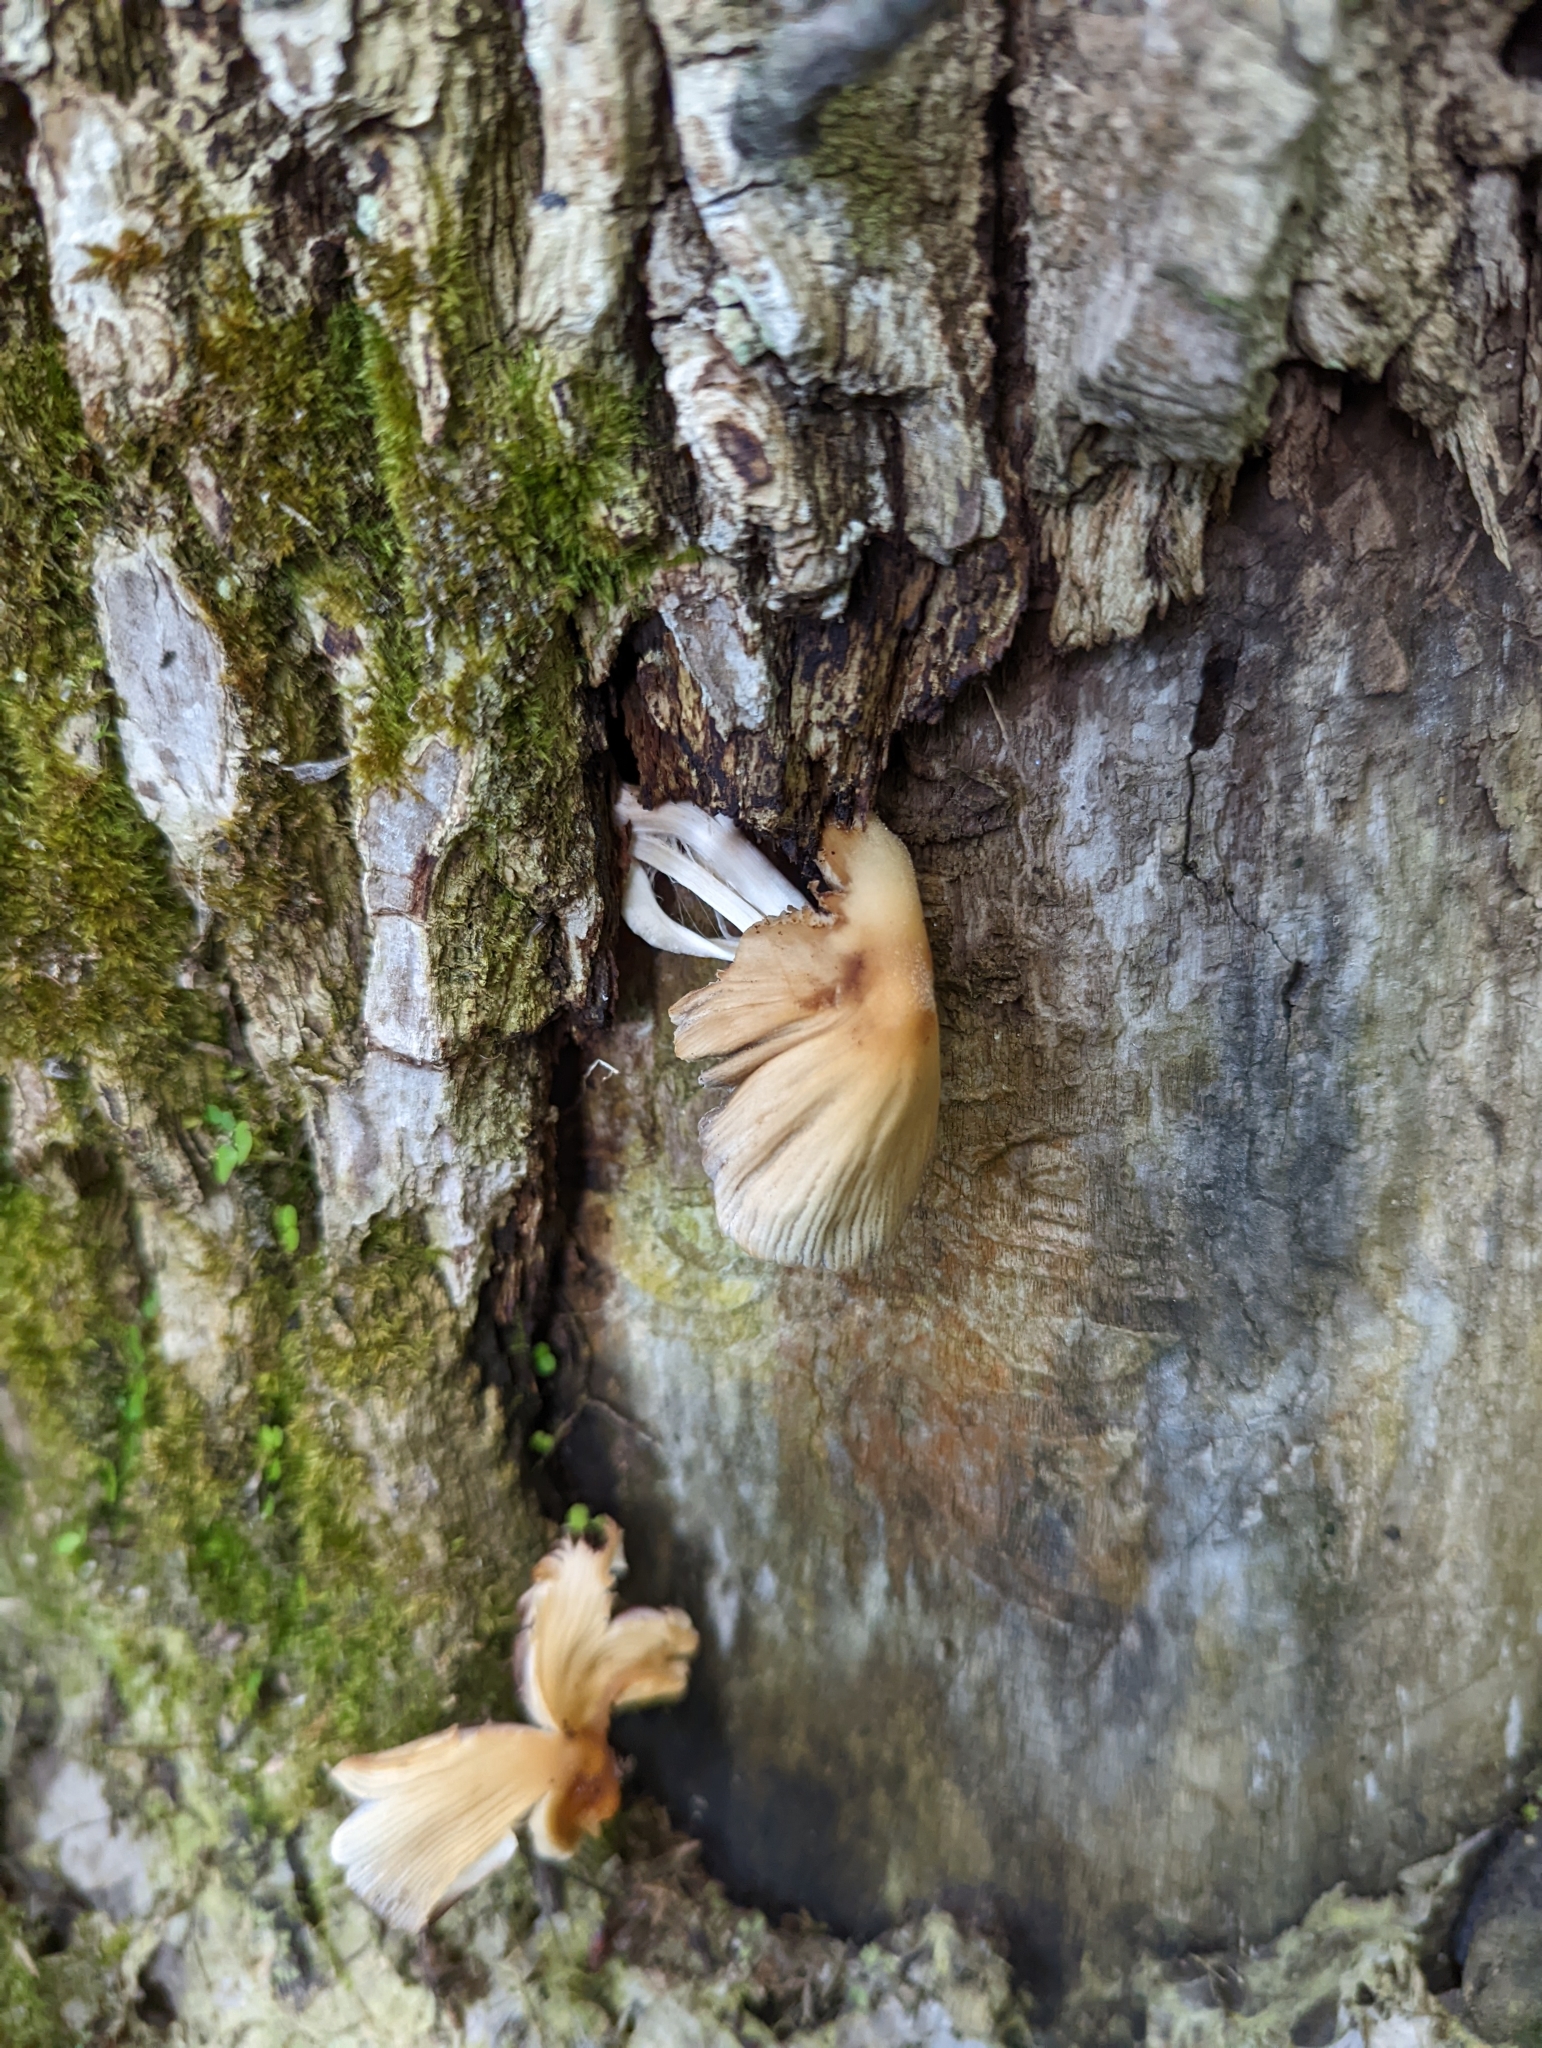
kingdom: Fungi
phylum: Basidiomycota
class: Agaricomycetes
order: Agaricales
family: Psathyrellaceae
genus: Coprinellus
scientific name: Coprinellus micaceus
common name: Glistening ink-cap
